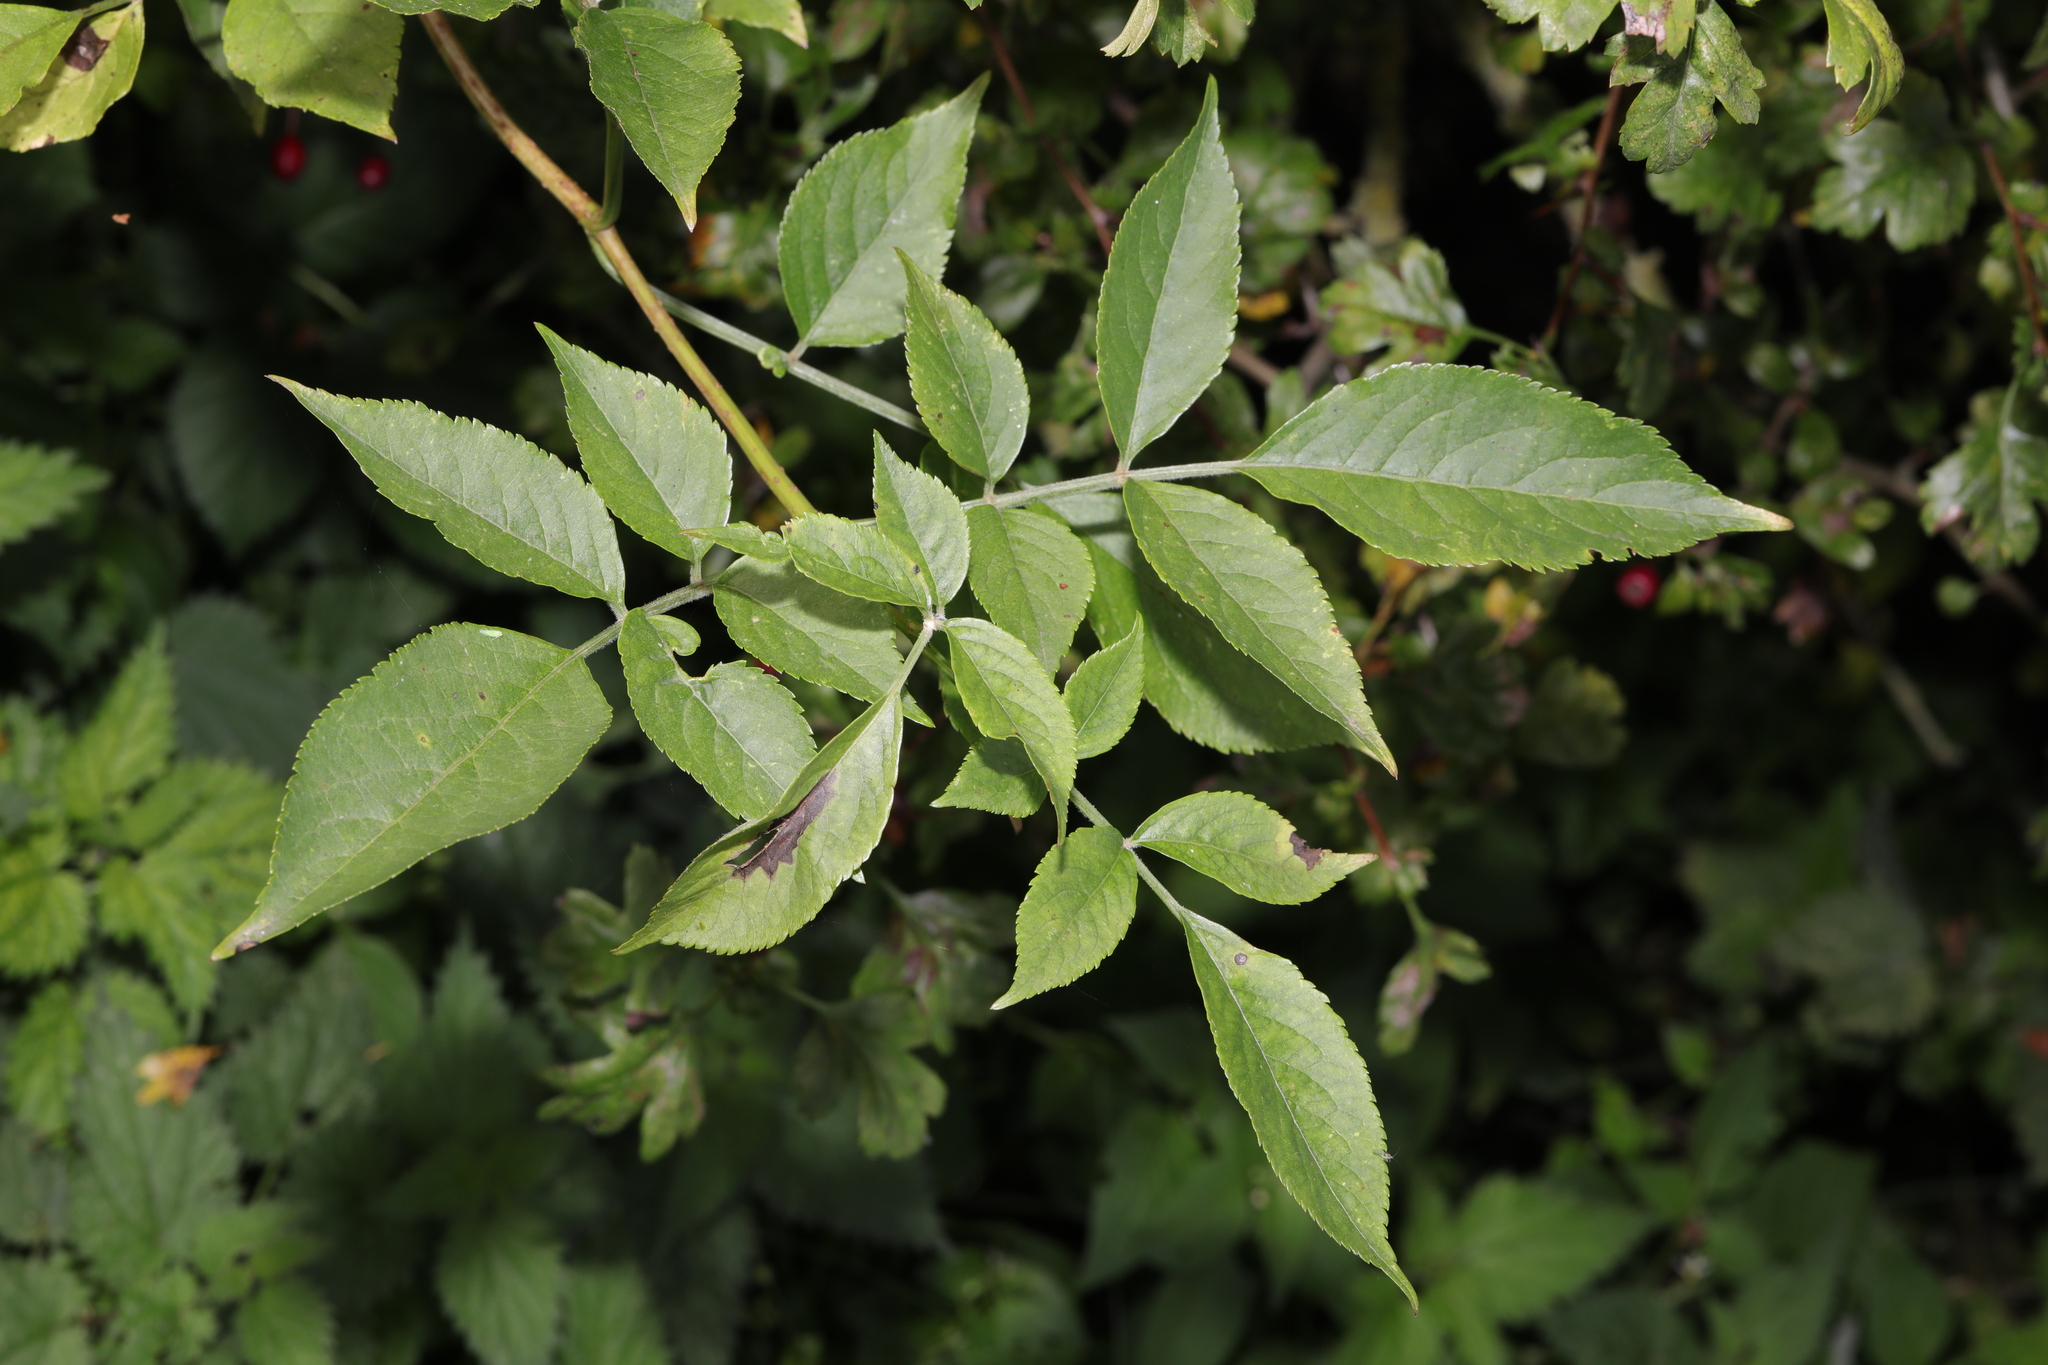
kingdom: Plantae
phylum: Tracheophyta
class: Magnoliopsida
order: Dipsacales
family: Viburnaceae
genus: Sambucus
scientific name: Sambucus nigra
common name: Elder
